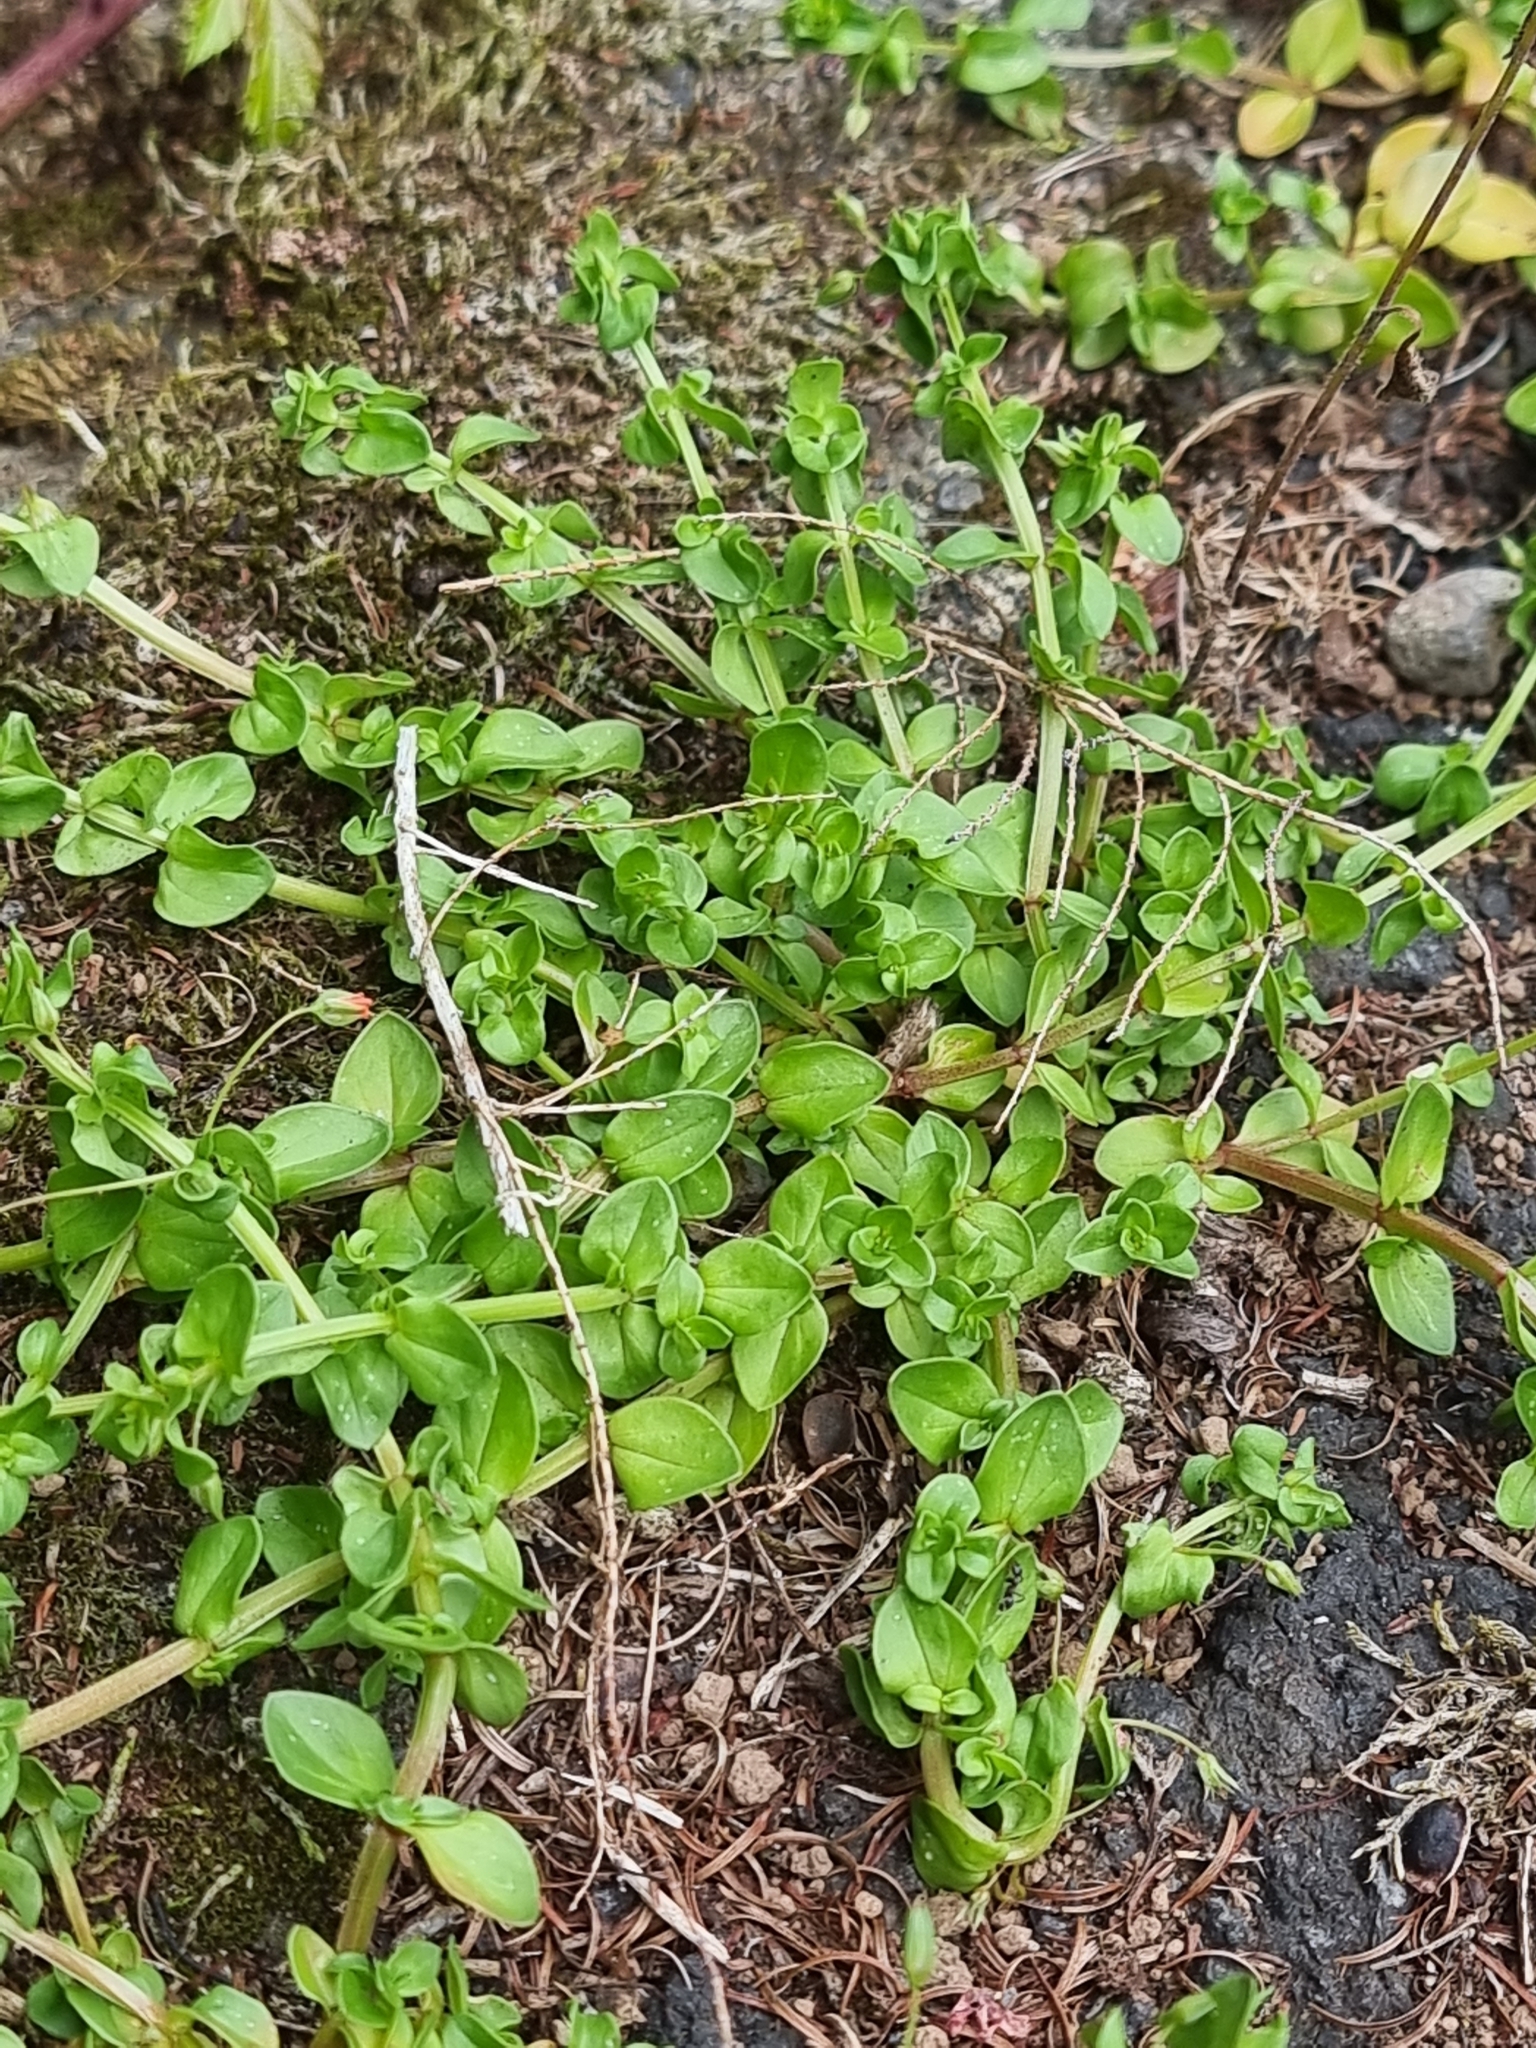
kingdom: Plantae
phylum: Tracheophyta
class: Magnoliopsida
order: Ericales
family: Primulaceae
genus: Lysimachia
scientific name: Lysimachia arvensis
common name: Scarlet pimpernel
